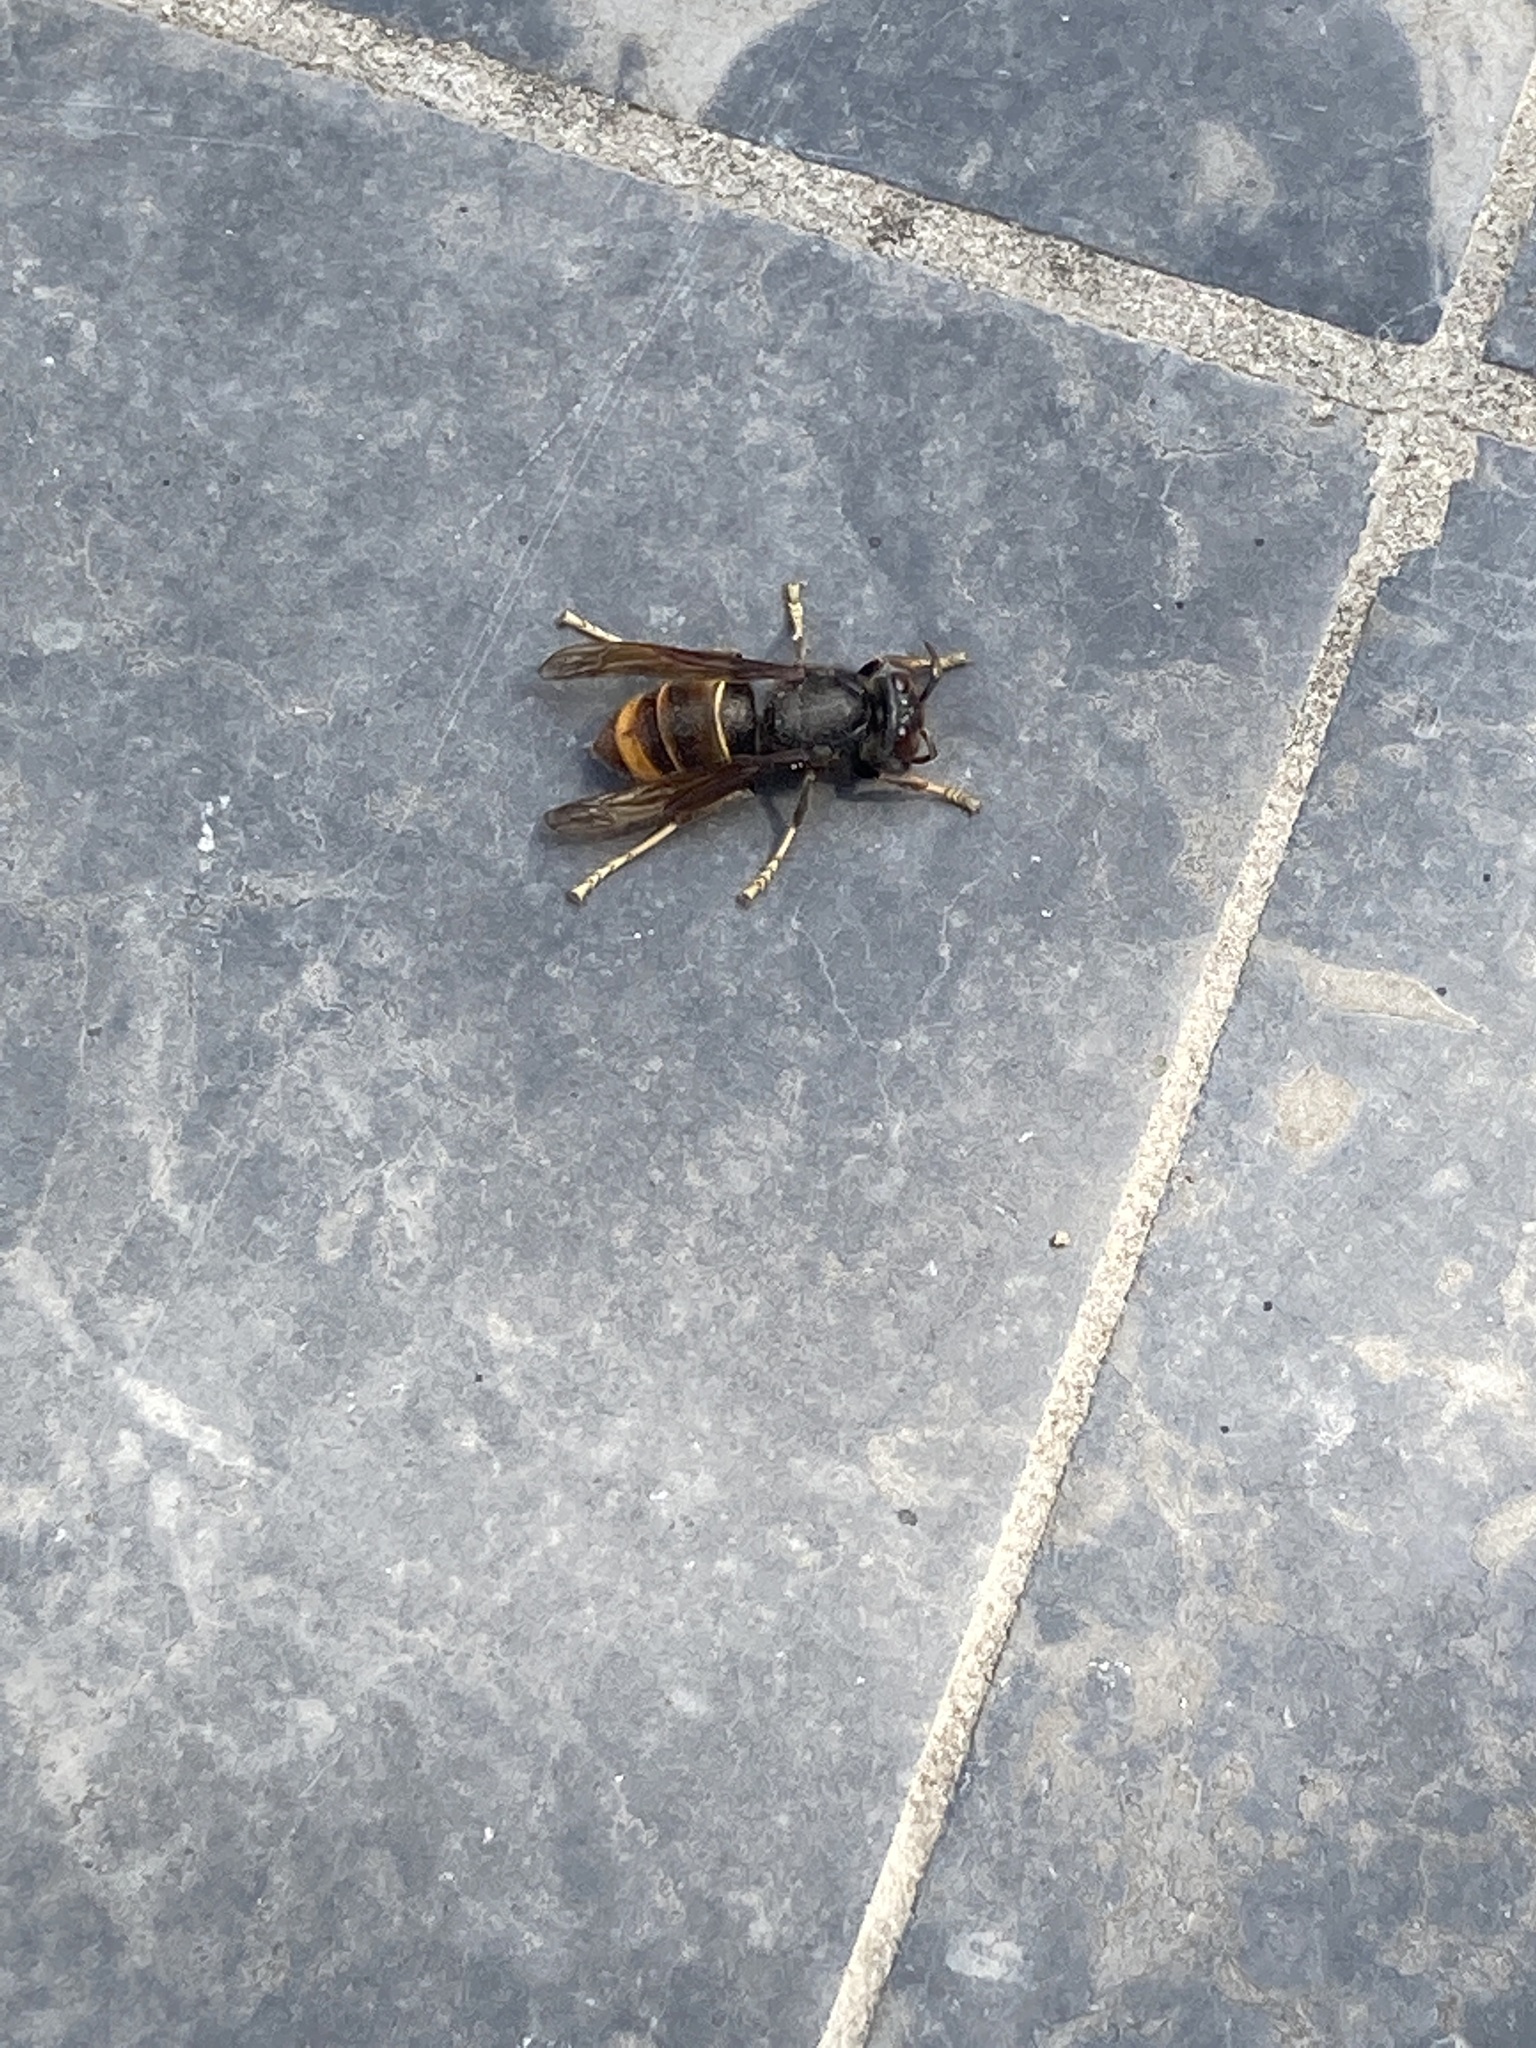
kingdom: Animalia
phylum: Arthropoda
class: Insecta
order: Hymenoptera
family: Vespidae
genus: Vespa
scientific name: Vespa velutina
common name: Asian hornet
